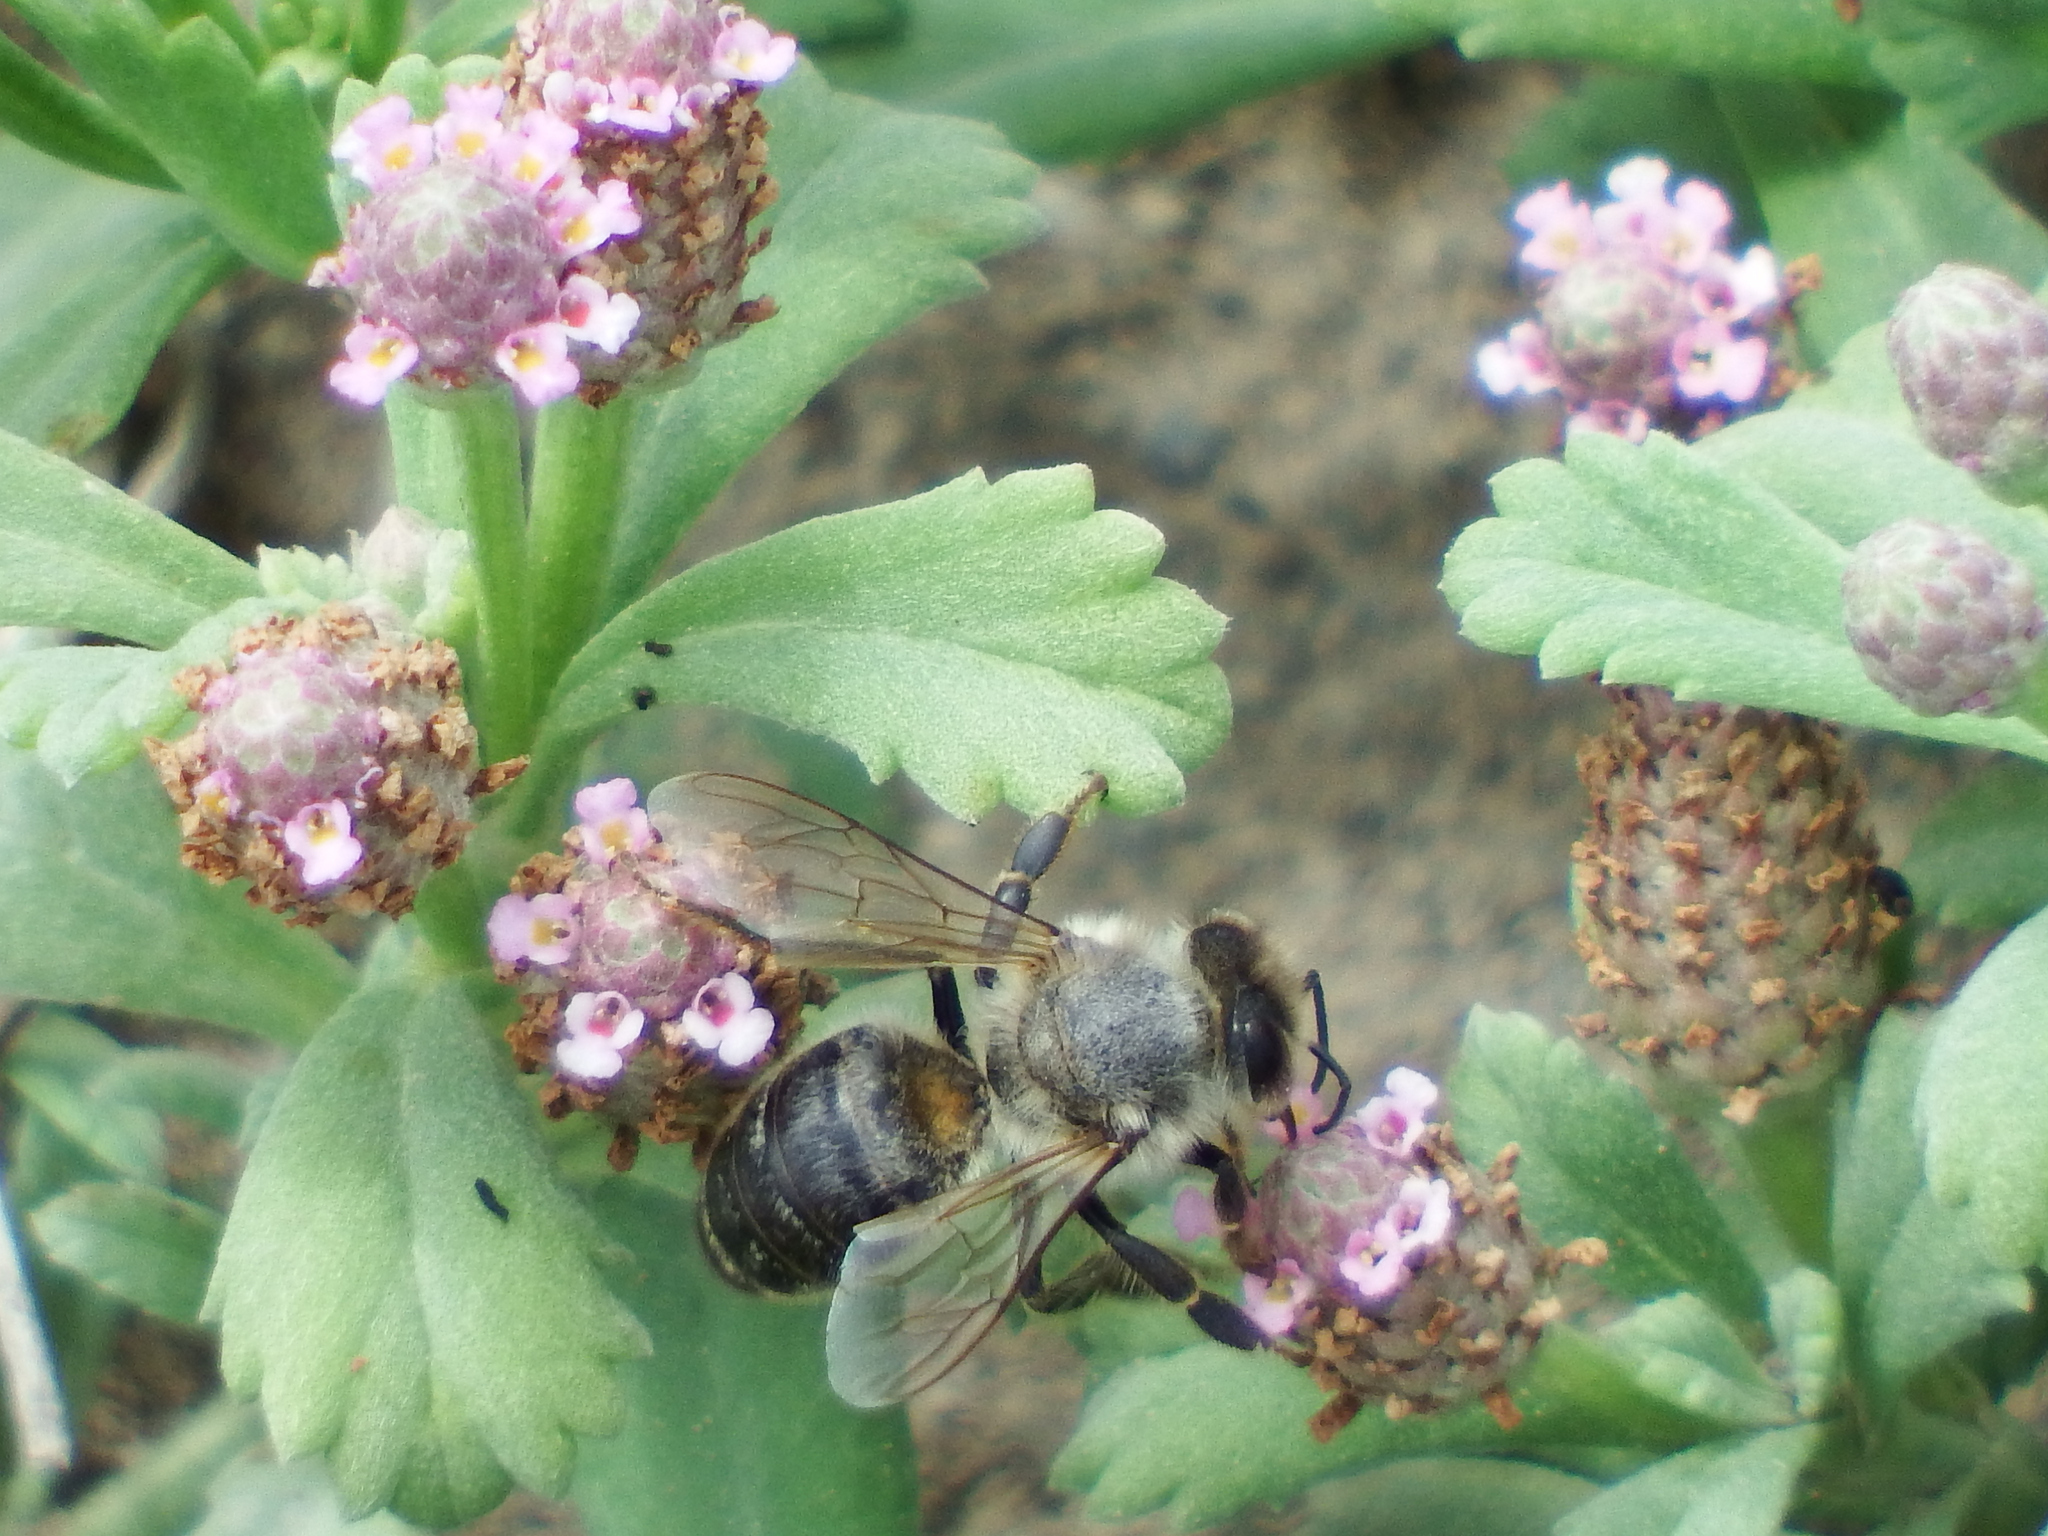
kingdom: Animalia
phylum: Arthropoda
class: Insecta
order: Hymenoptera
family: Apidae
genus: Apis
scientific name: Apis mellifera
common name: Honey bee
